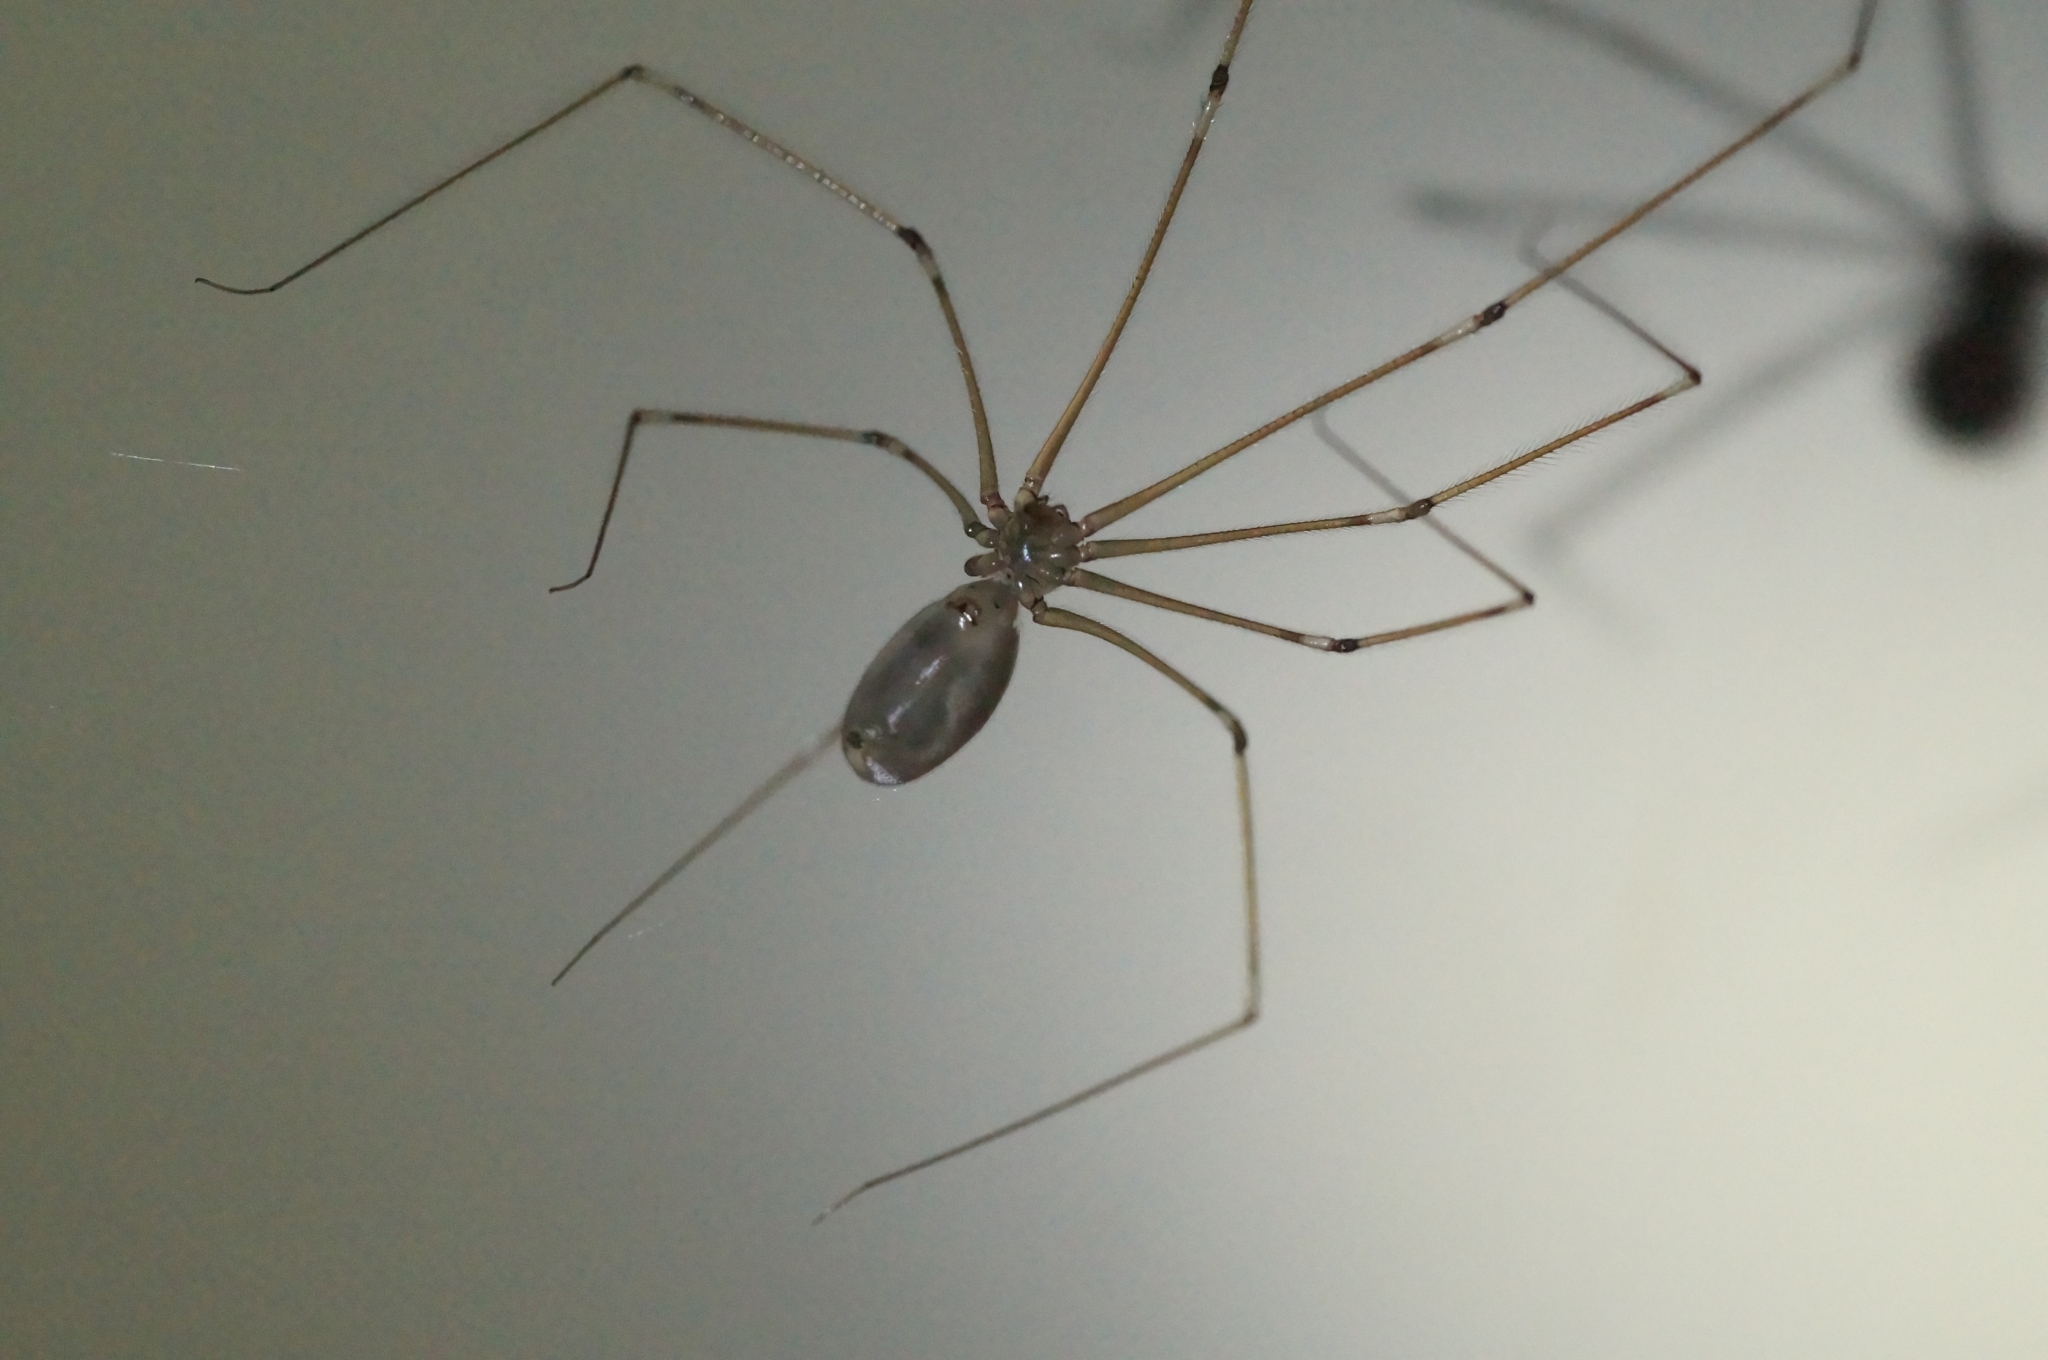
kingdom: Animalia
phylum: Arthropoda
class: Arachnida
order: Araneae
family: Pholcidae
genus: Pholcus
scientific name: Pholcus phalangioides
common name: Longbodied cellar spider
